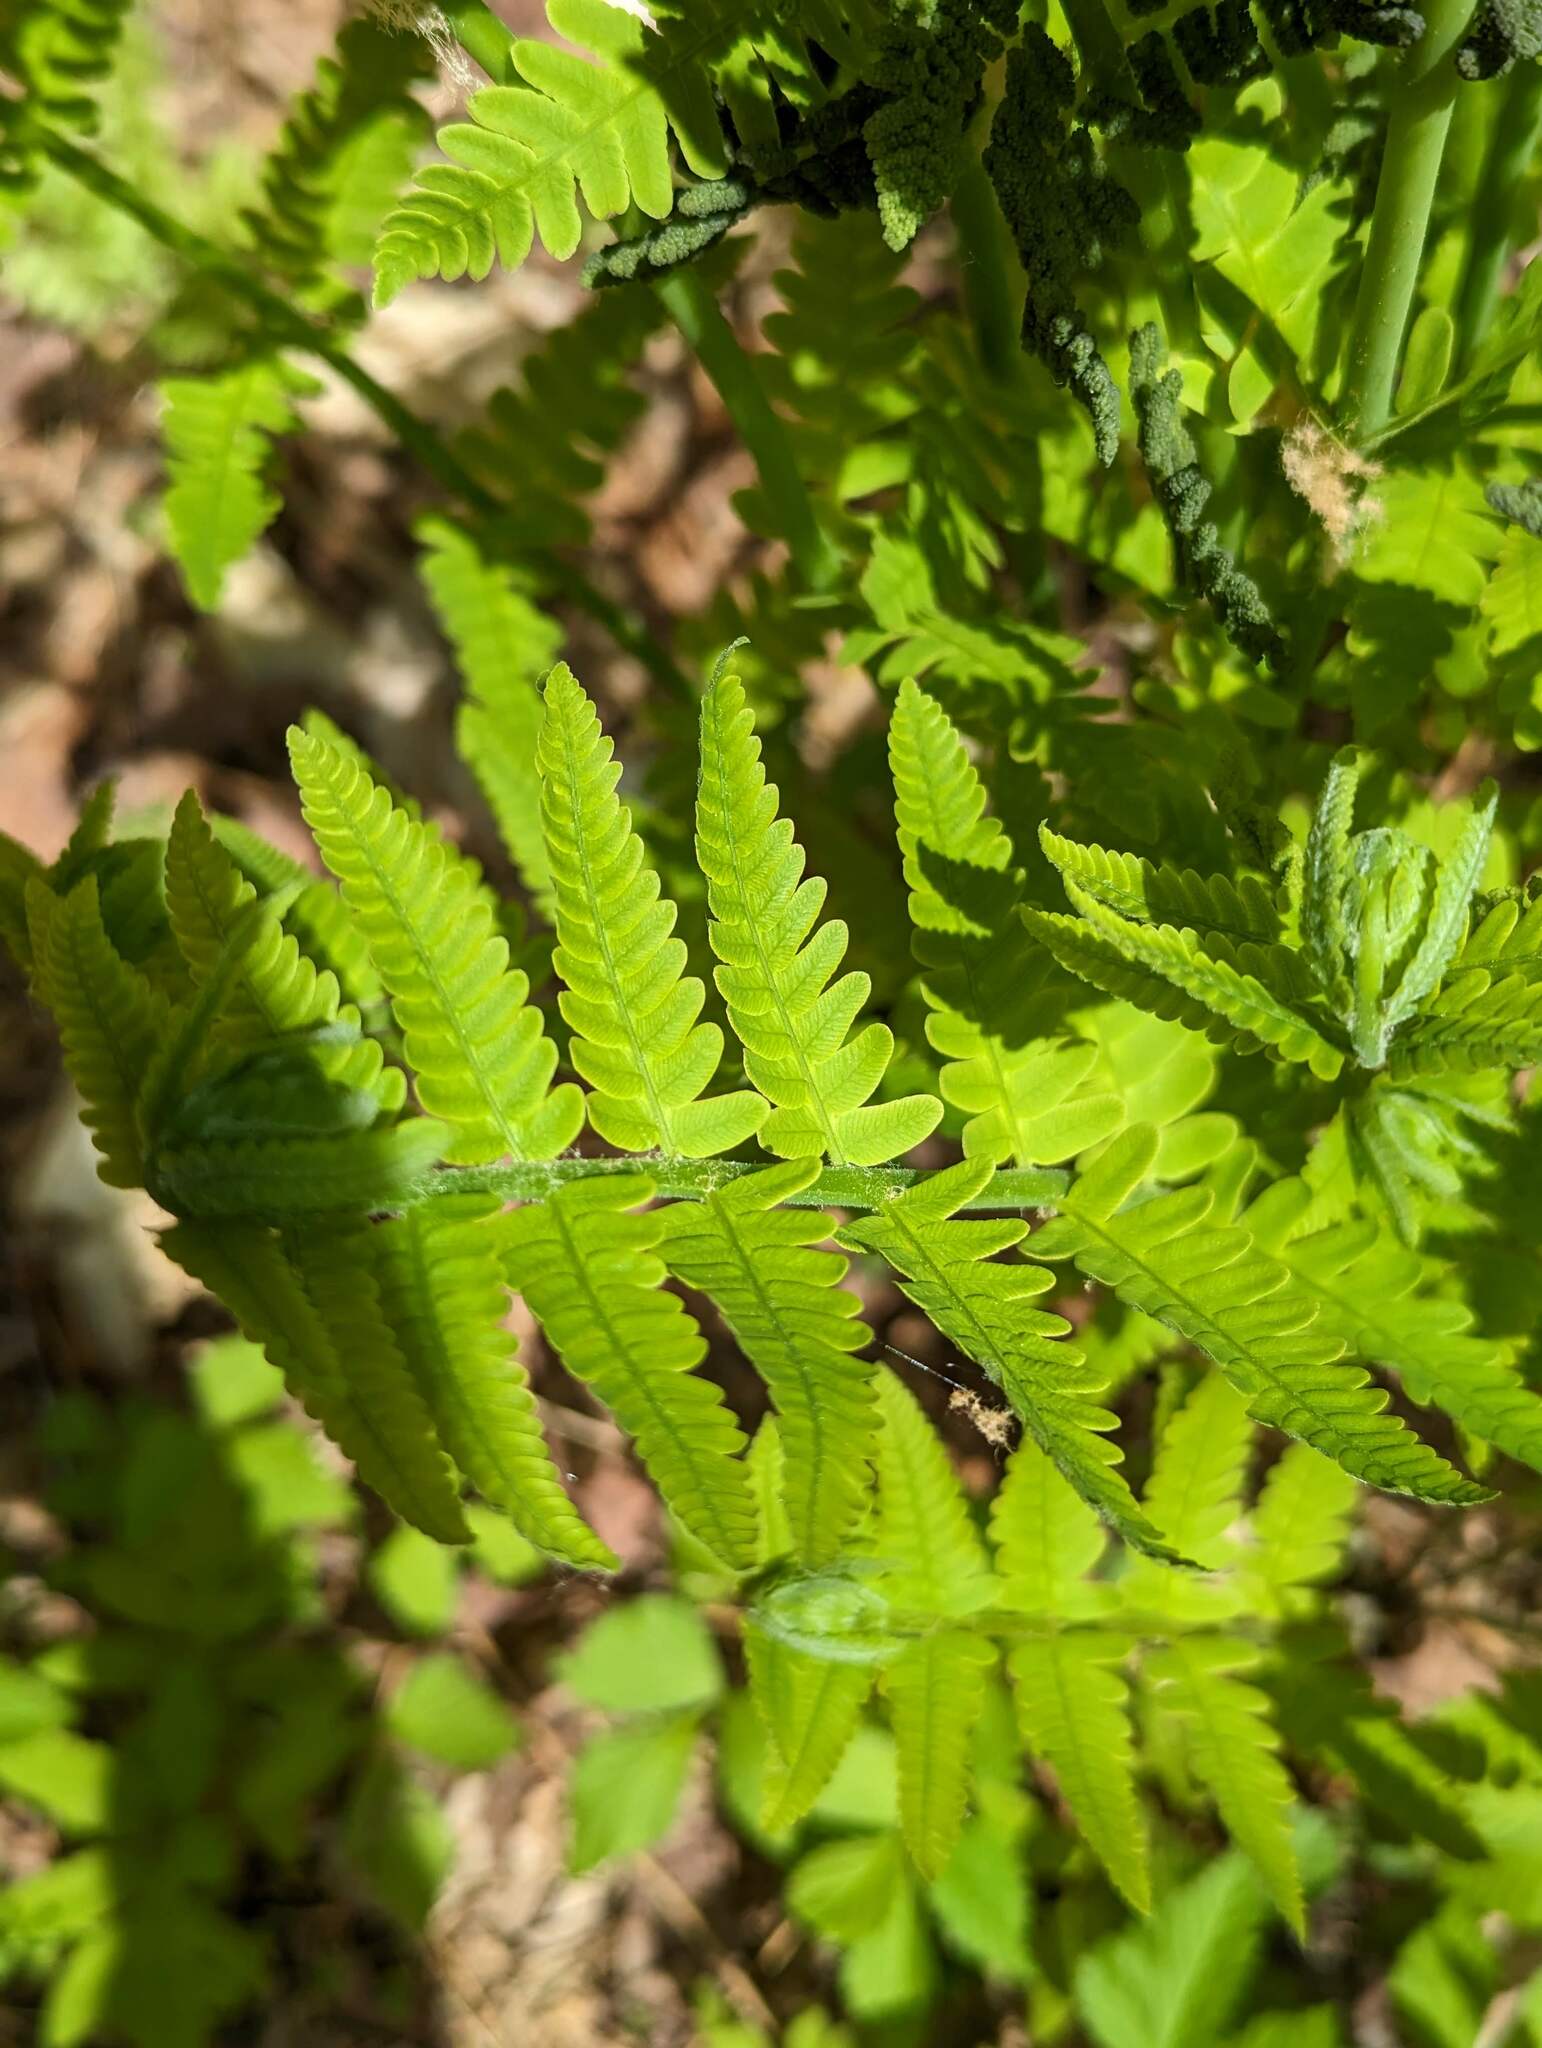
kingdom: Plantae
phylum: Tracheophyta
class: Polypodiopsida
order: Osmundales
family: Osmundaceae
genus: Claytosmunda
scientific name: Claytosmunda claytoniana
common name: Clayton's fern
